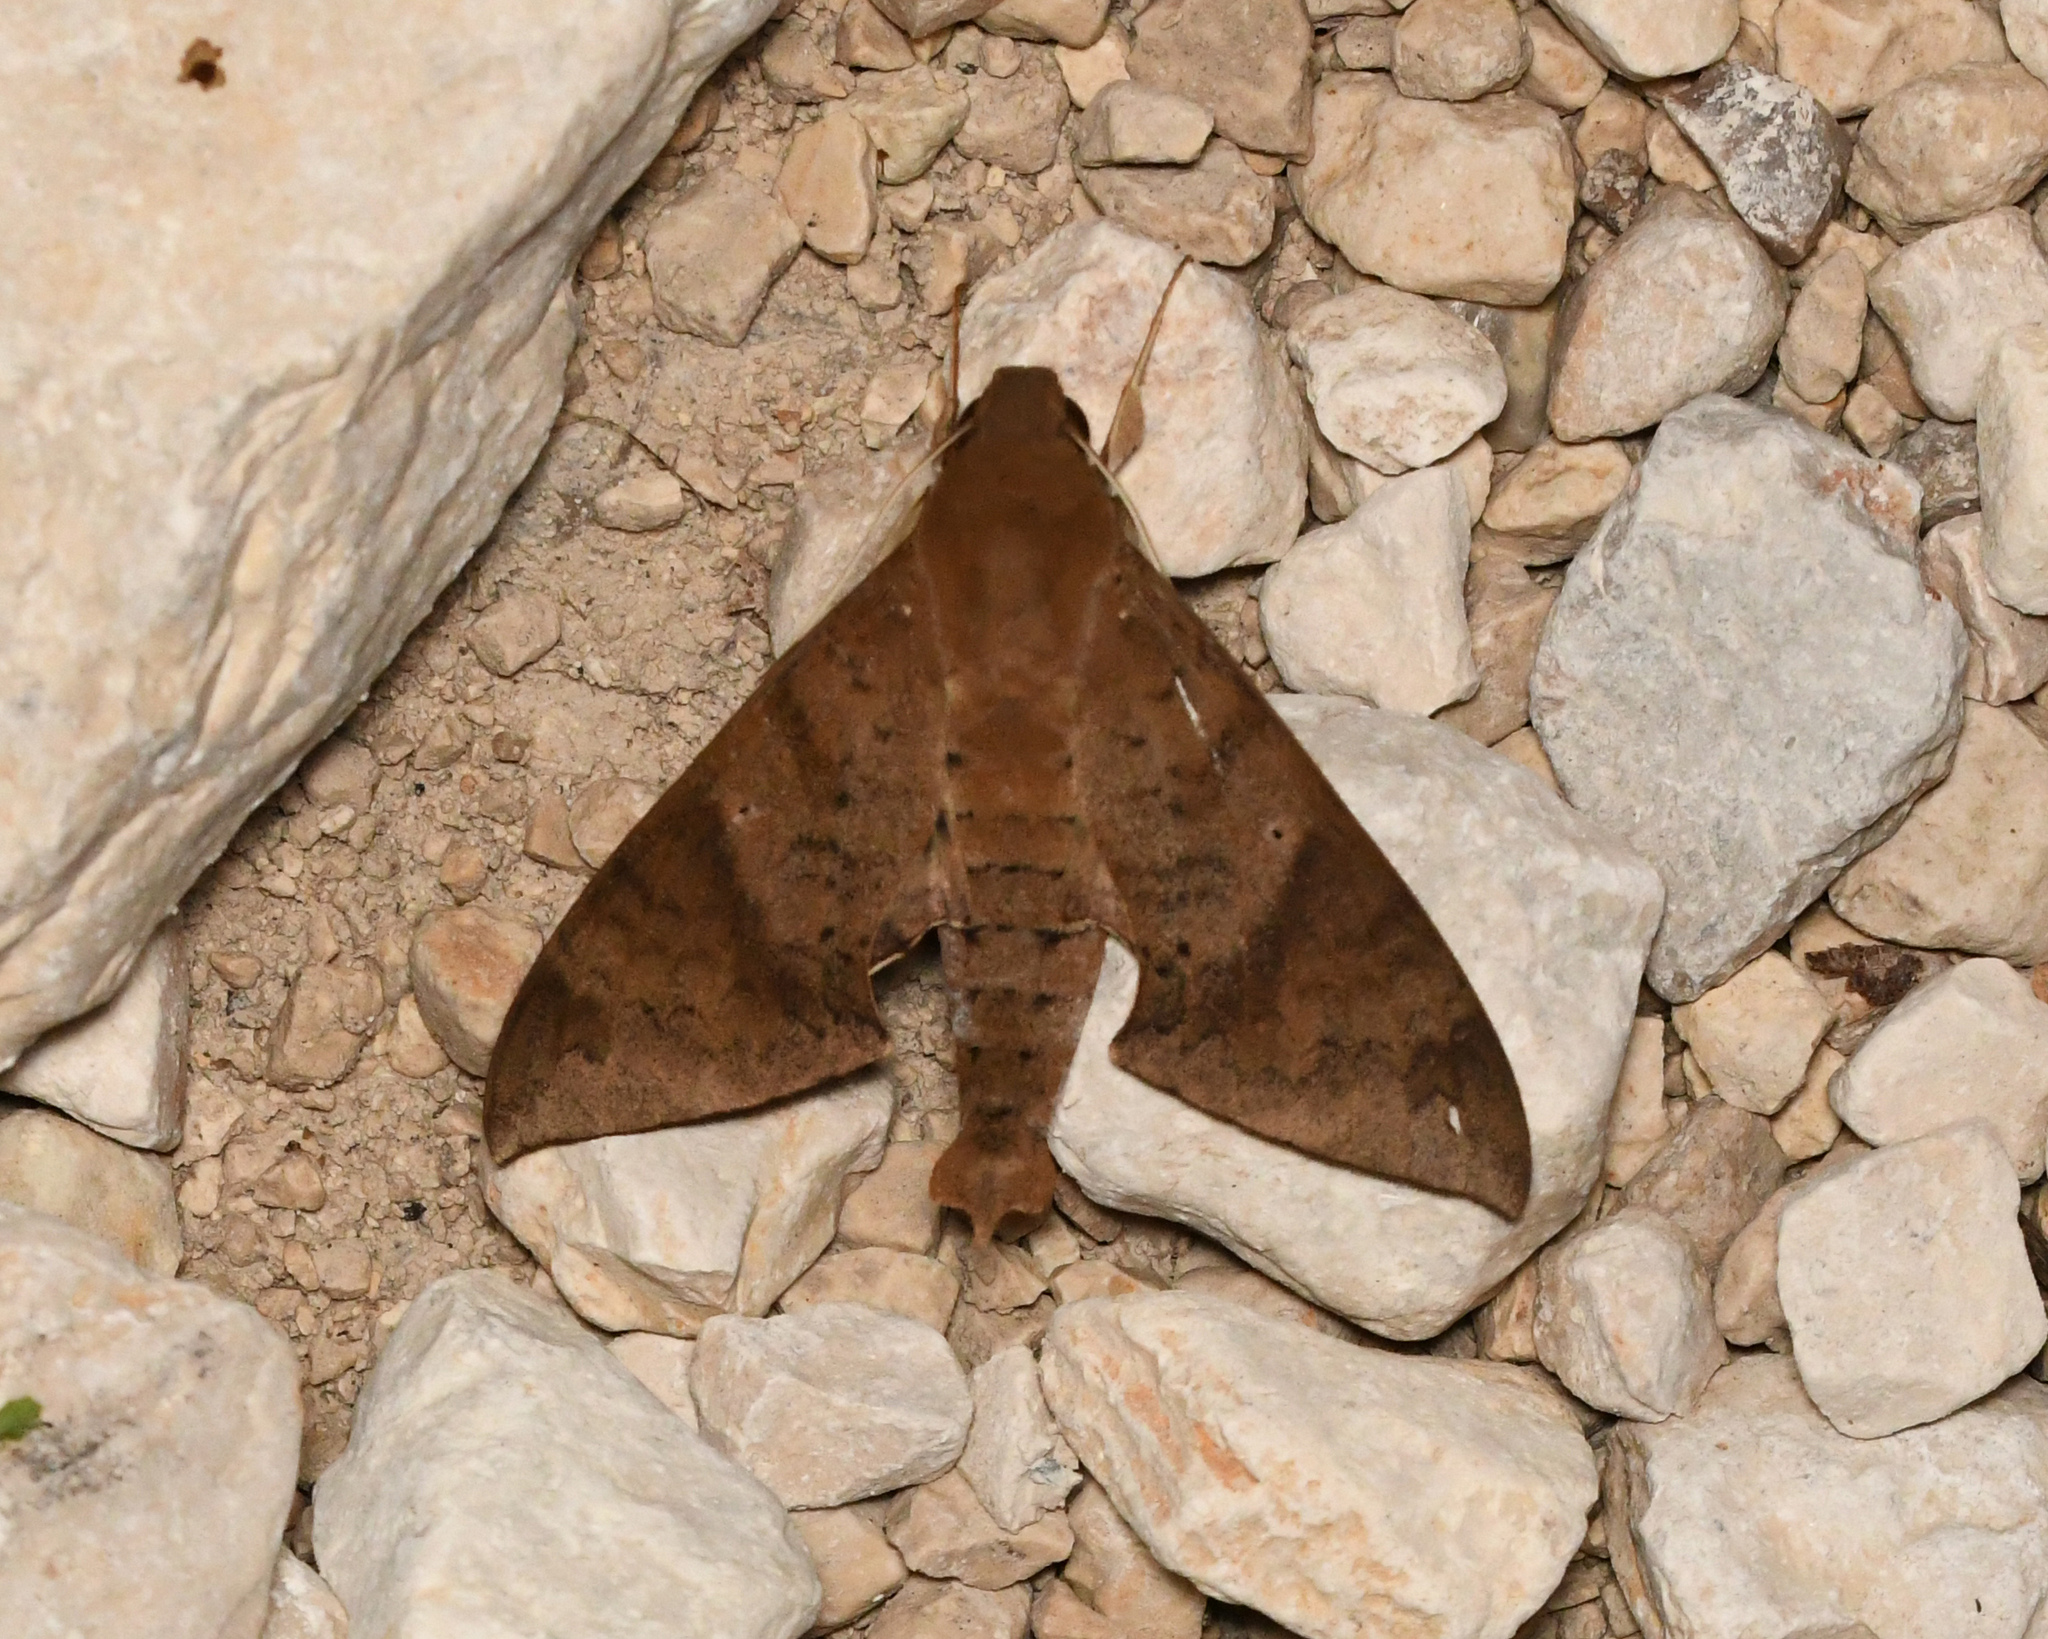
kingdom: Animalia
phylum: Arthropoda
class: Insecta
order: Lepidoptera
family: Sphingidae
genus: Pachylioides
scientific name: Pachylioides resumens
